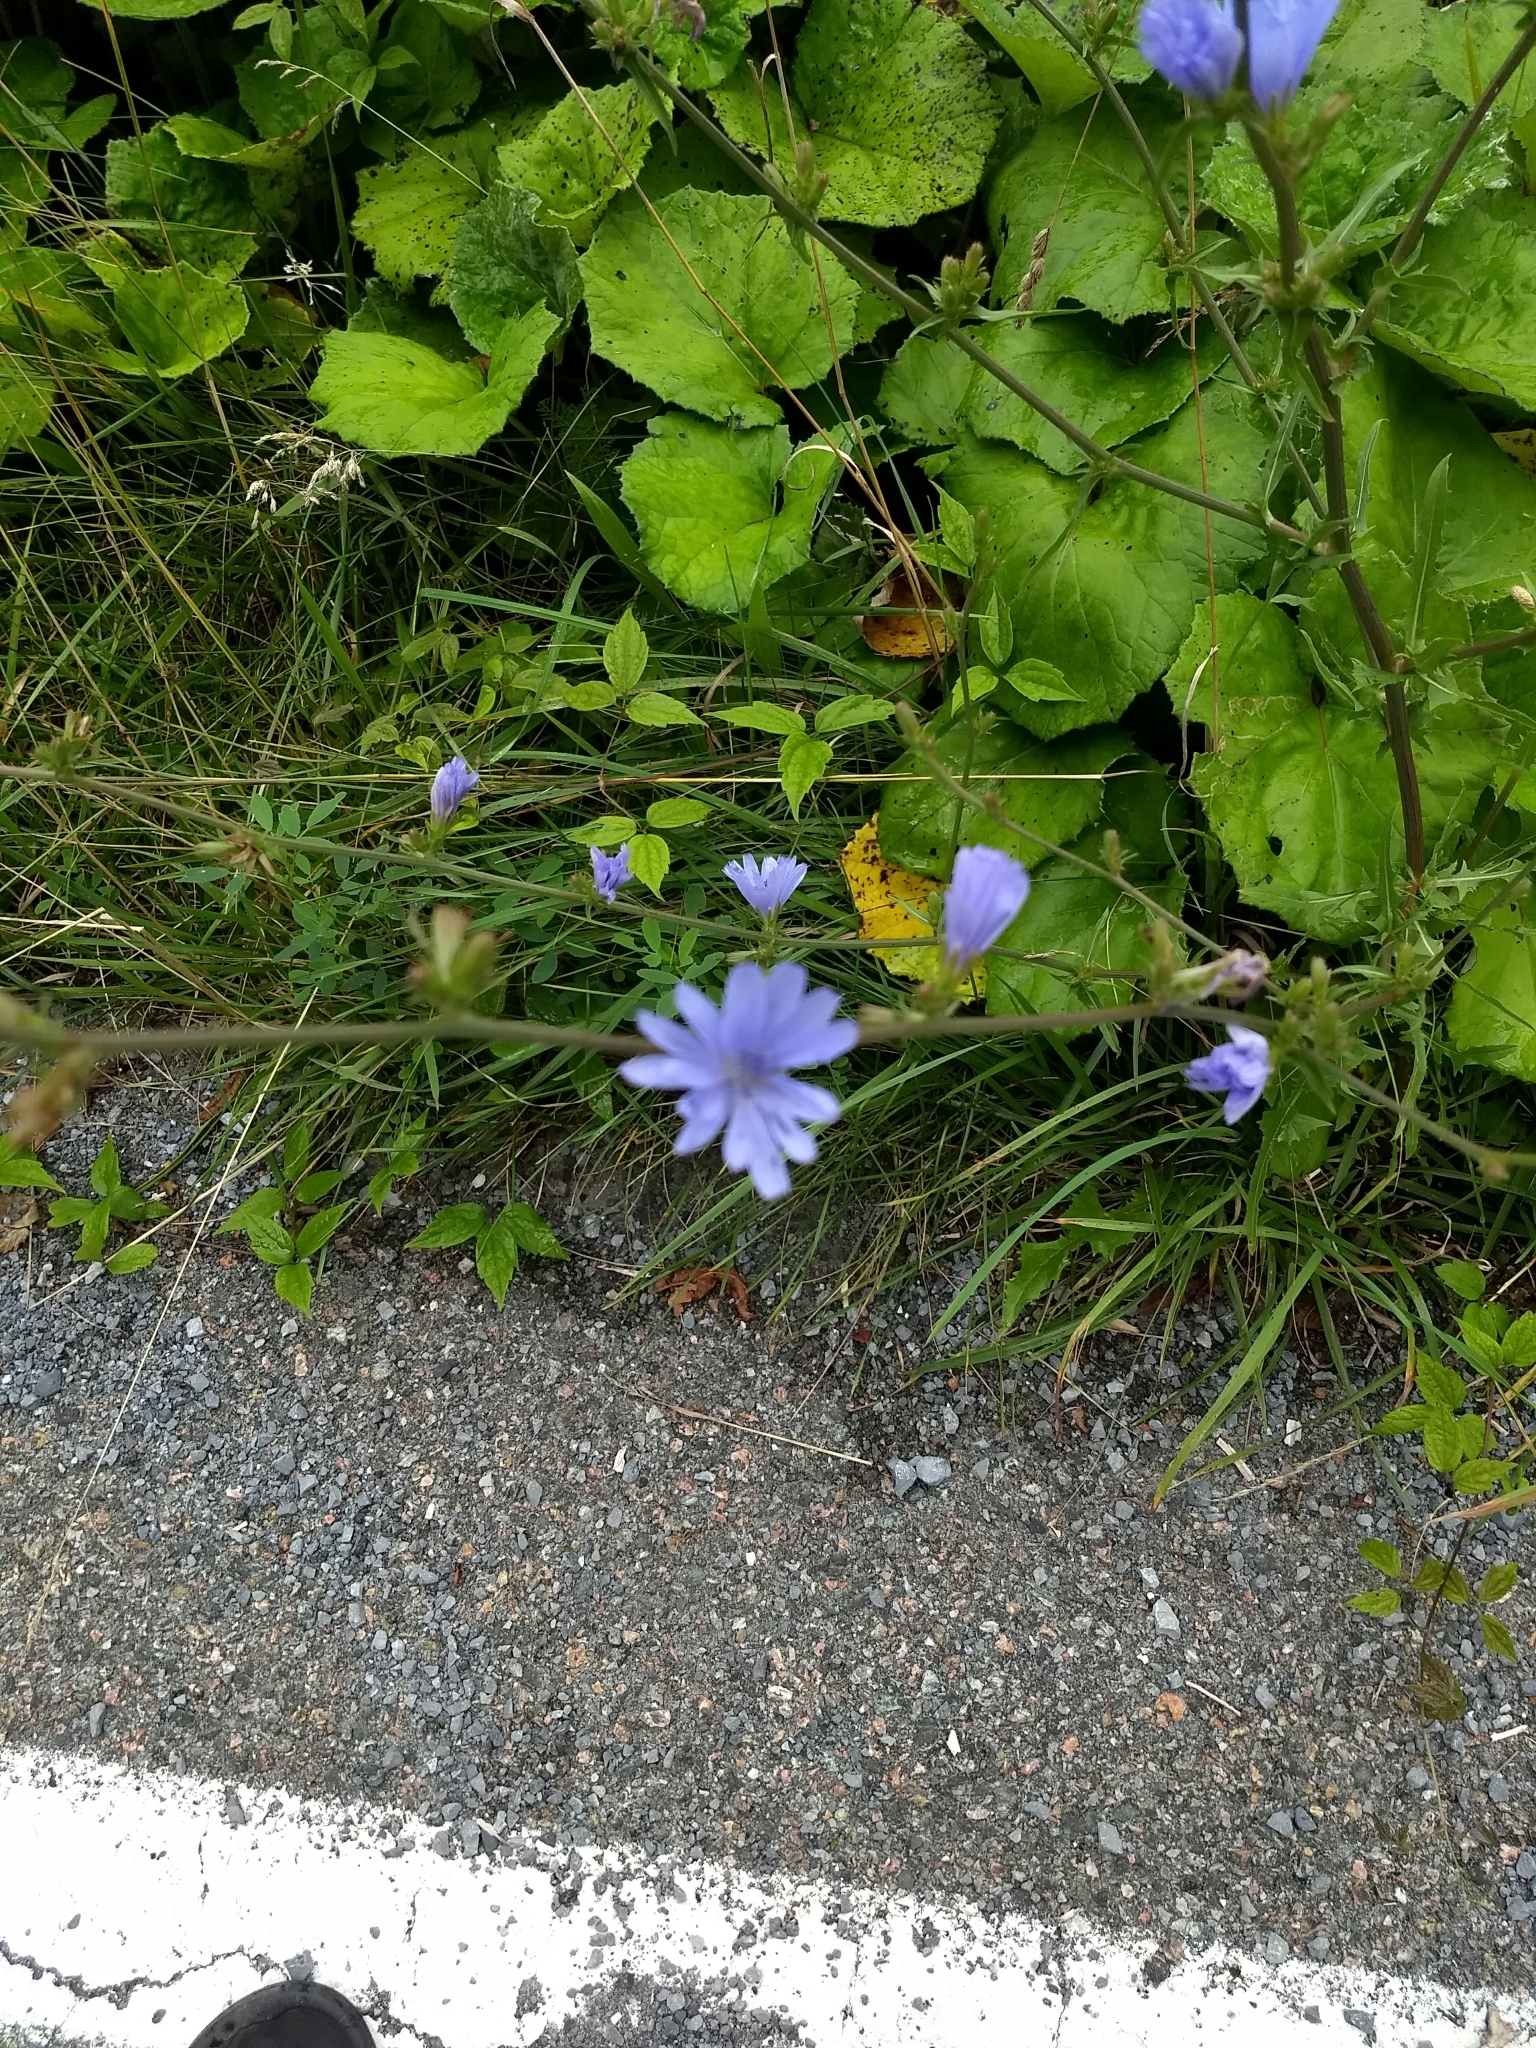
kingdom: Plantae
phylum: Tracheophyta
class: Magnoliopsida
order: Asterales
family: Asteraceae
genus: Cichorium
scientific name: Cichorium intybus
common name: Chicory
